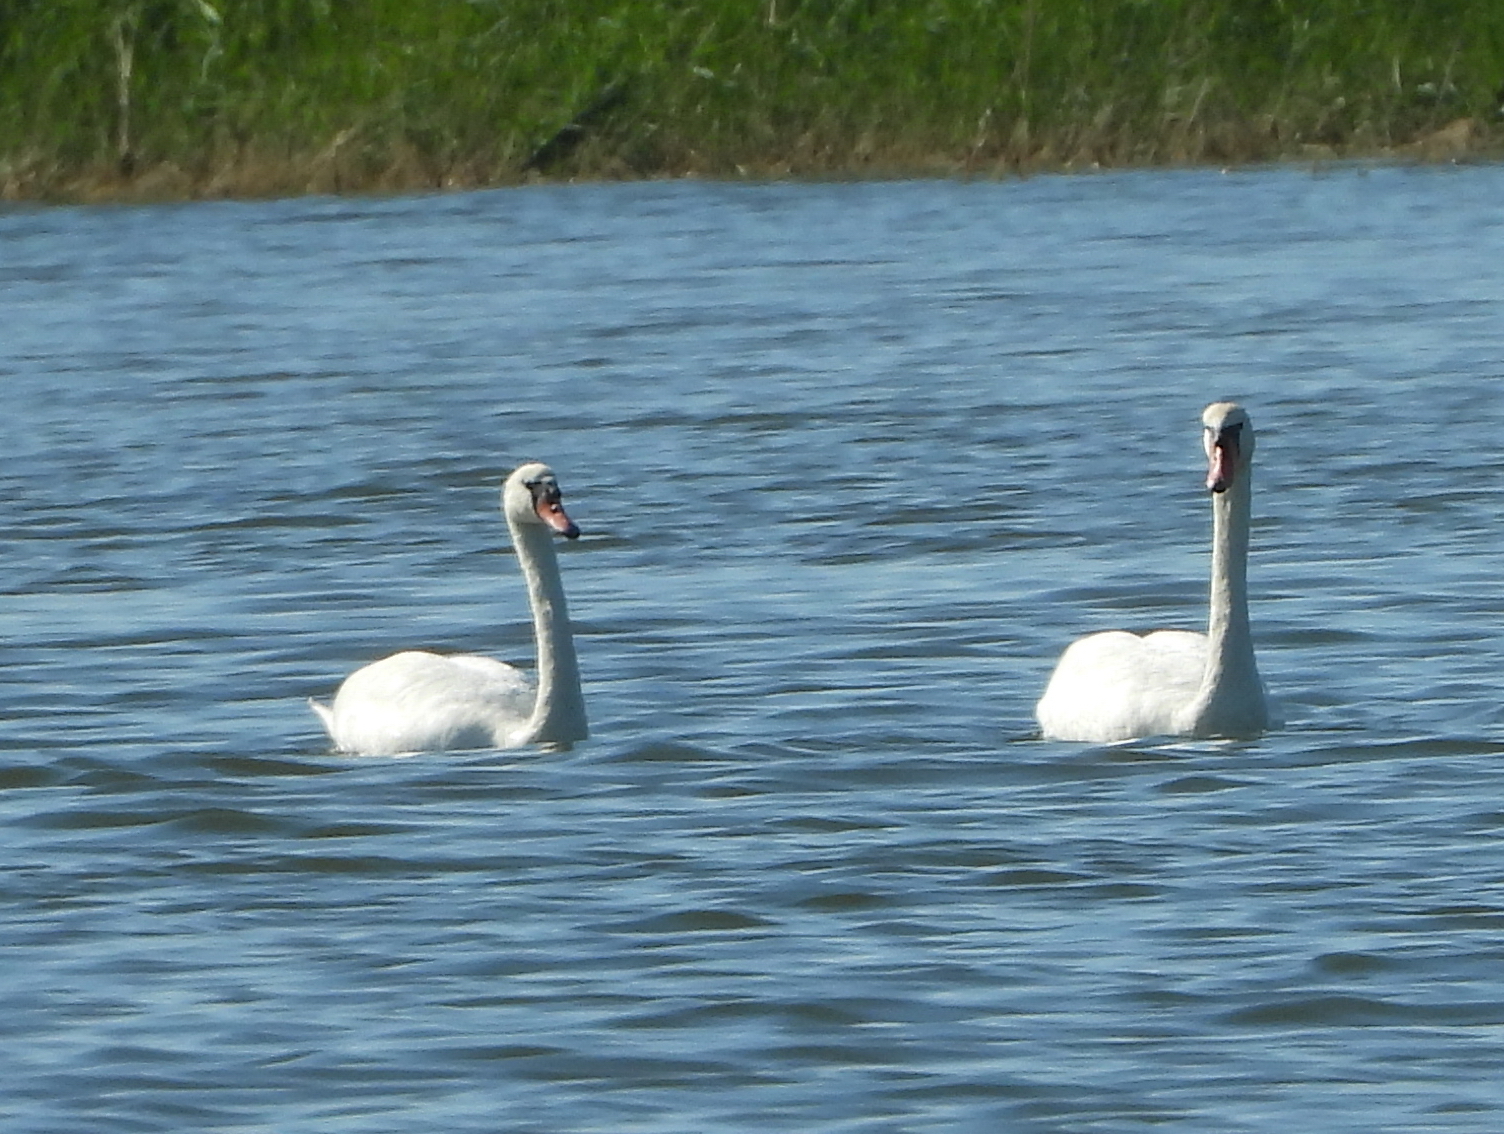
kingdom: Animalia
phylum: Chordata
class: Aves
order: Anseriformes
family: Anatidae
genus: Cygnus
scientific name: Cygnus olor
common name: Mute swan
